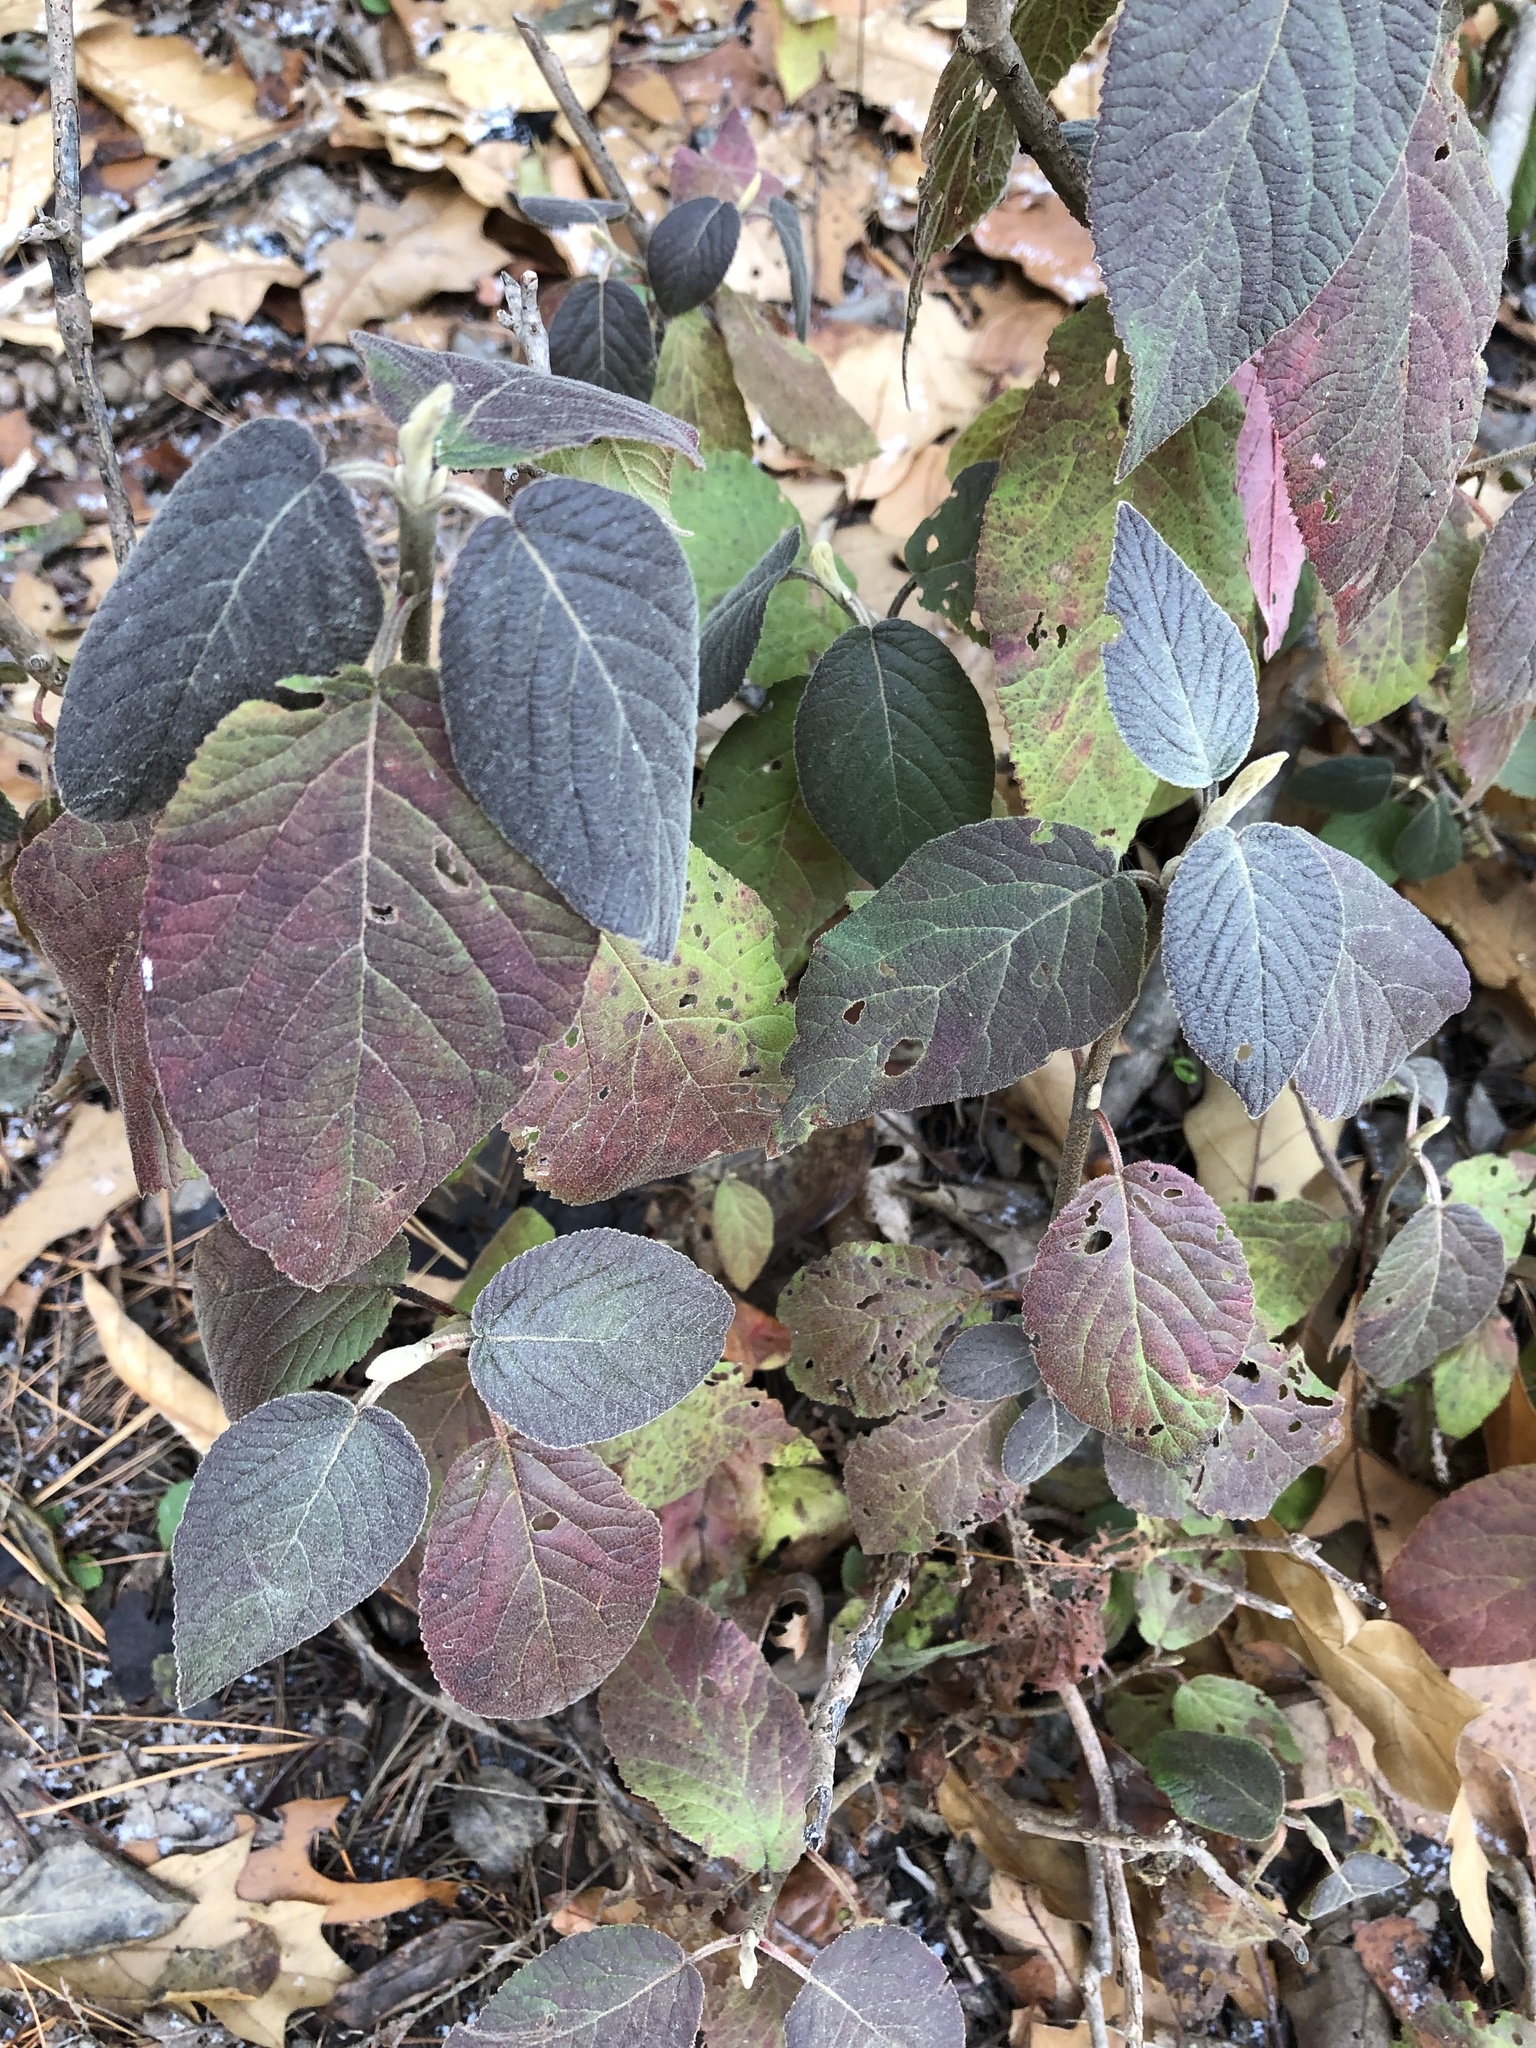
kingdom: Plantae
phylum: Tracheophyta
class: Magnoliopsida
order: Dipsacales
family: Viburnaceae
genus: Viburnum
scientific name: Viburnum lantana
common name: Wayfaring tree
